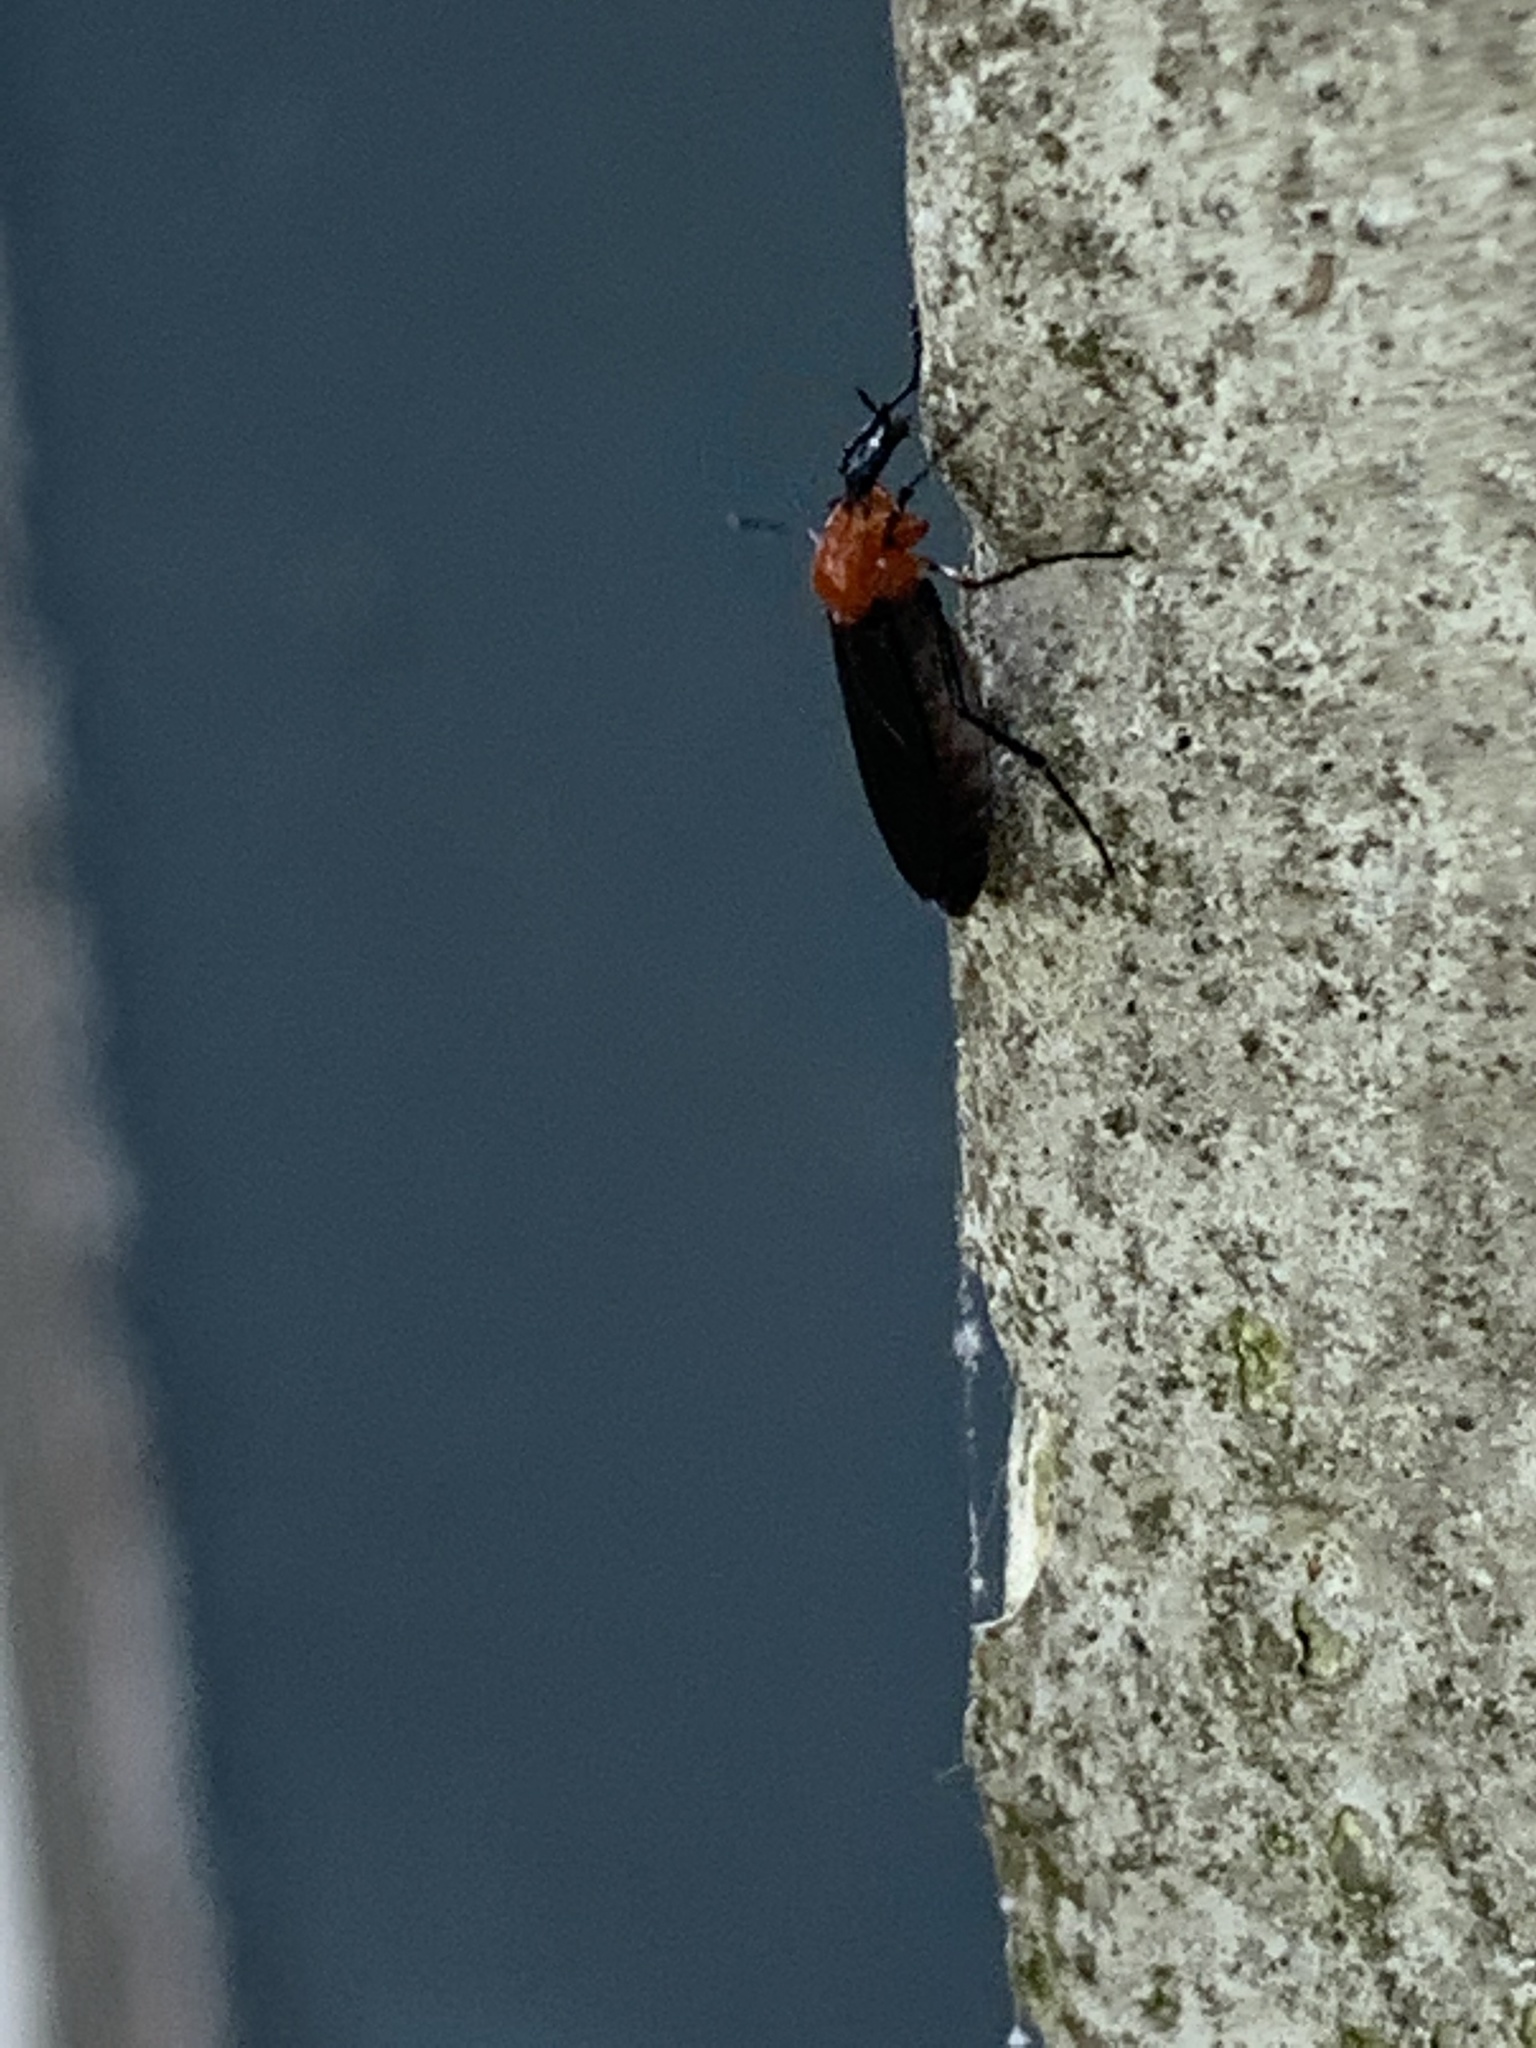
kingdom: Animalia
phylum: Arthropoda
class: Insecta
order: Diptera
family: Bibionidae
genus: Dilophus
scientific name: Dilophus spinipes
